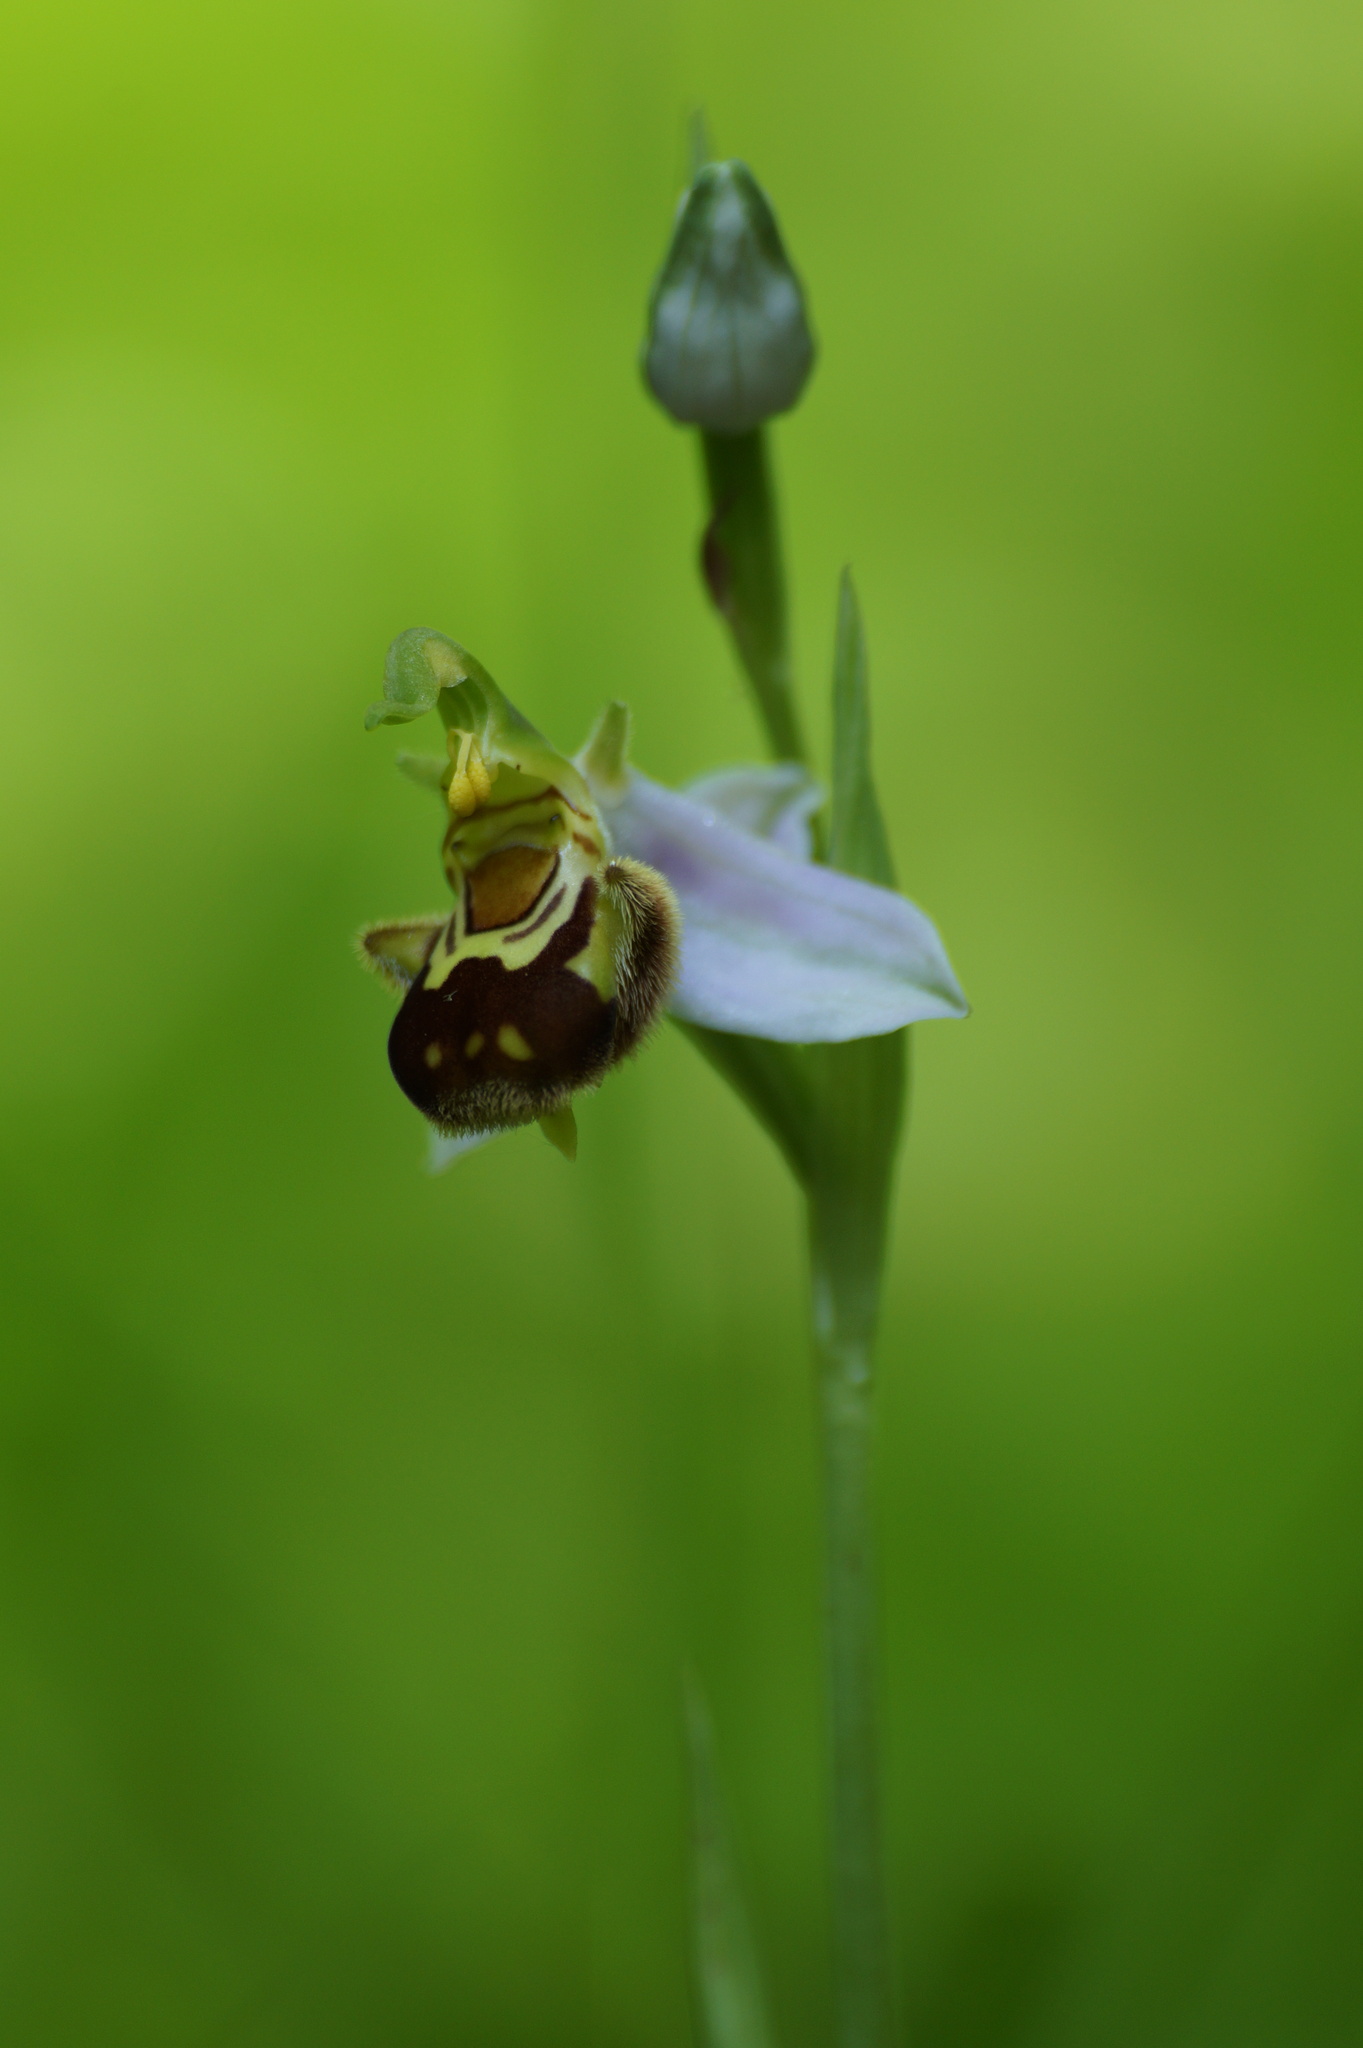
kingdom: Plantae
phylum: Tracheophyta
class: Liliopsida
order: Asparagales
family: Orchidaceae
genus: Ophrys
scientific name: Ophrys apifera
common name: Bee orchid
